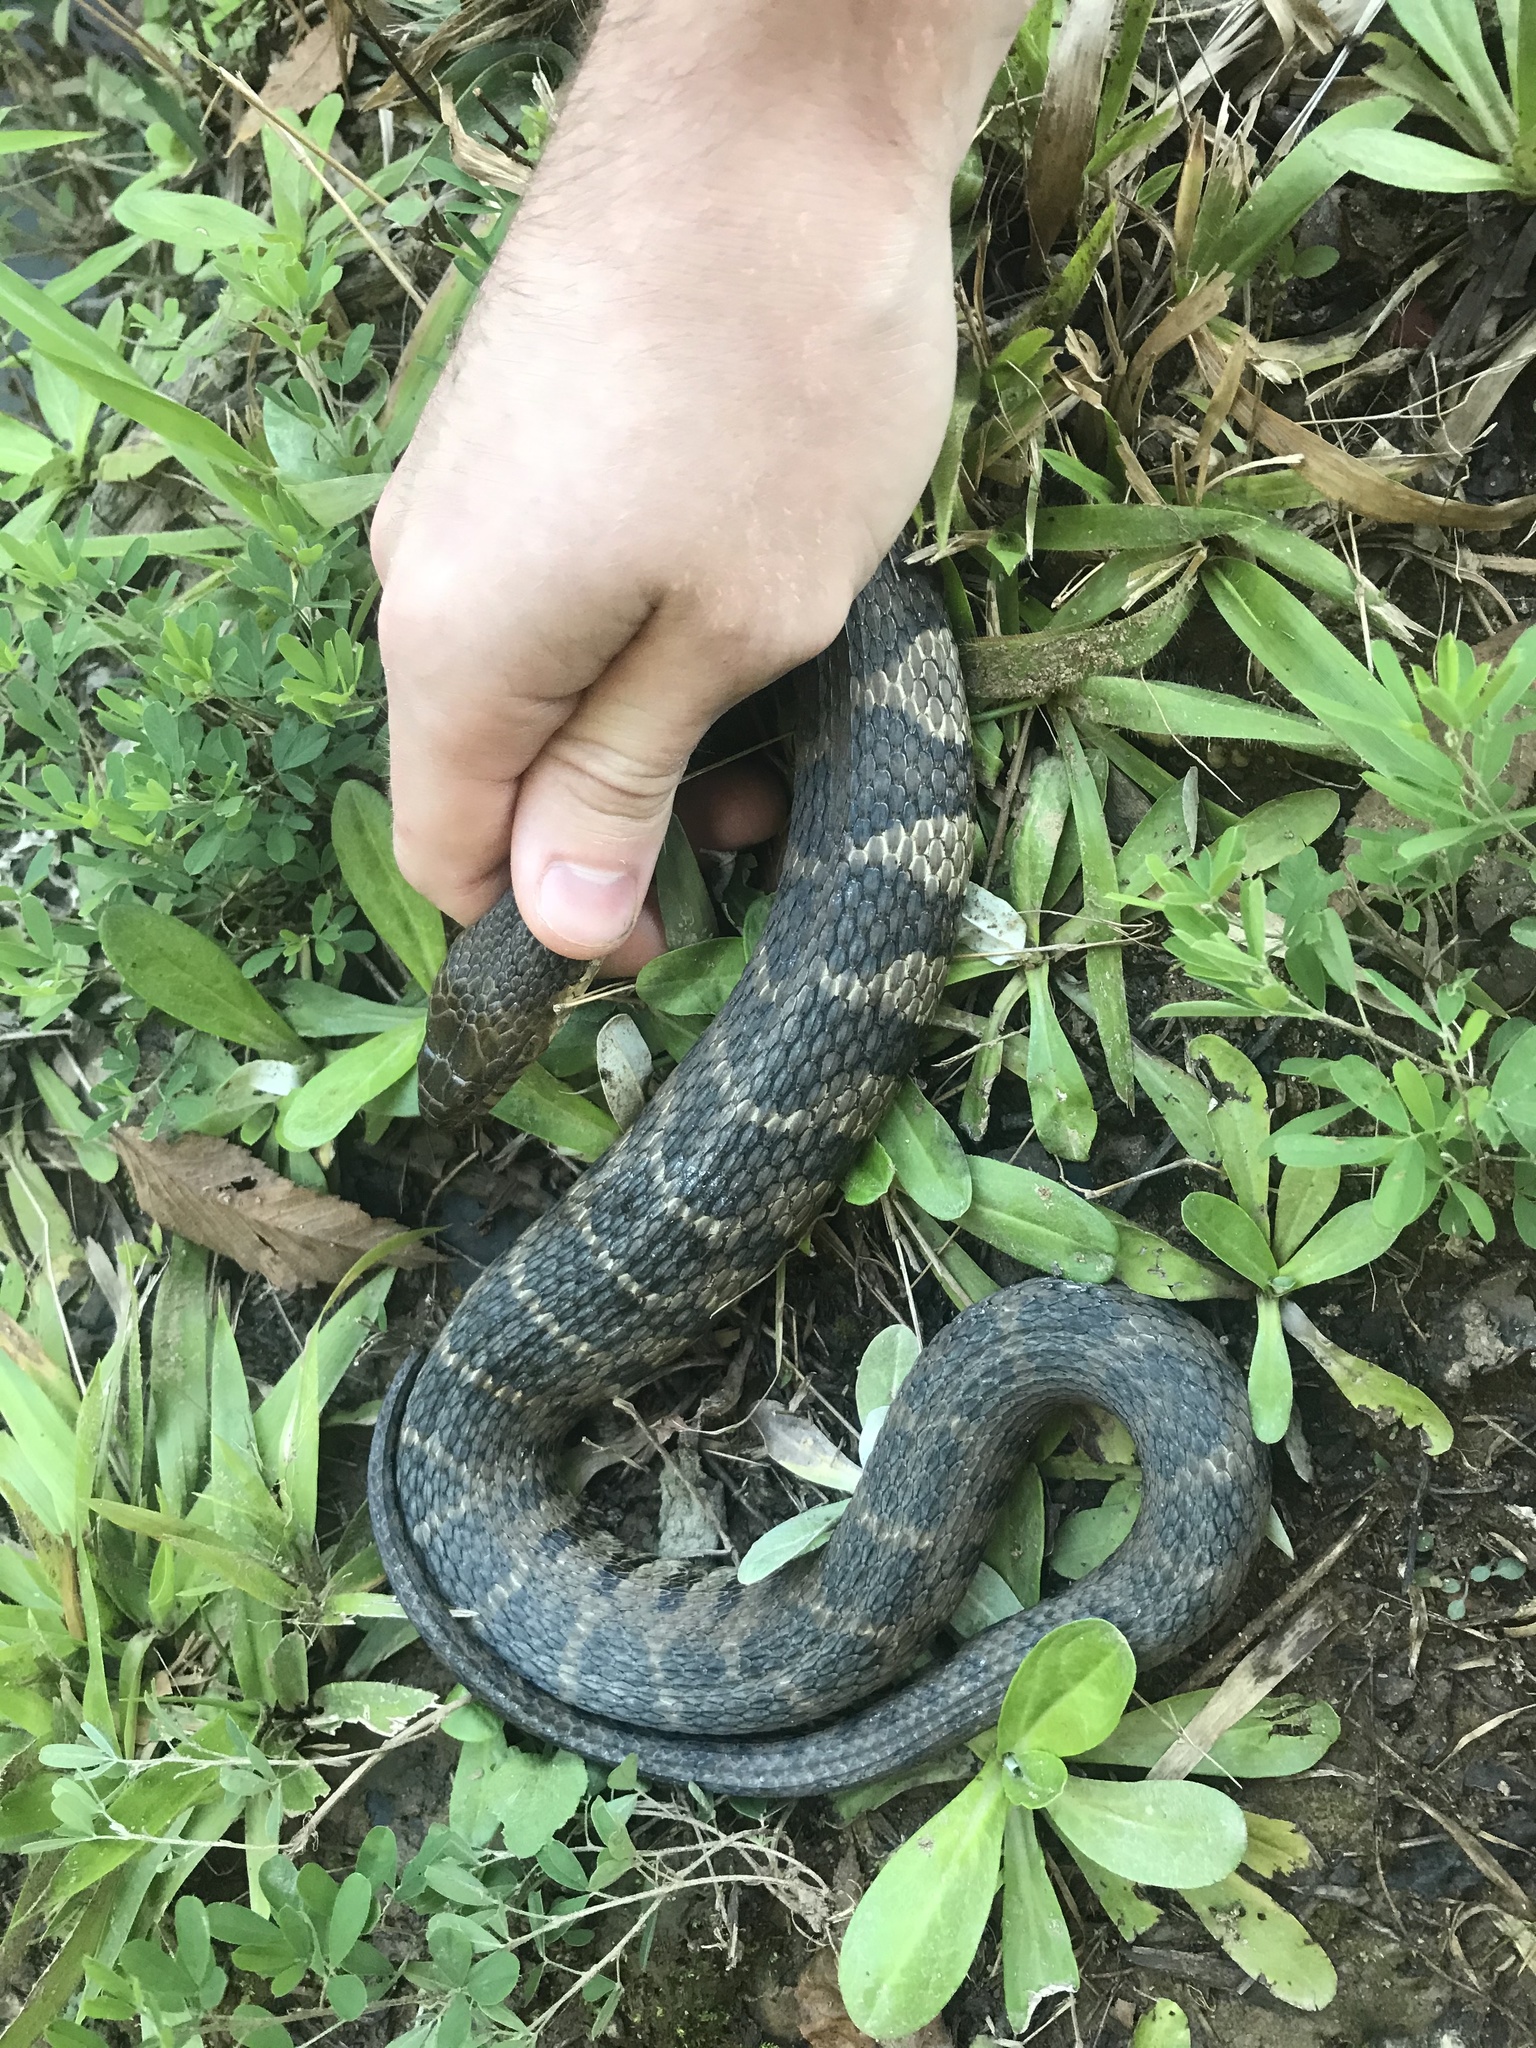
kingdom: Animalia
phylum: Chordata
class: Squamata
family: Colubridae
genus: Nerodia
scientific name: Nerodia sipedon
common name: Northern water snake
